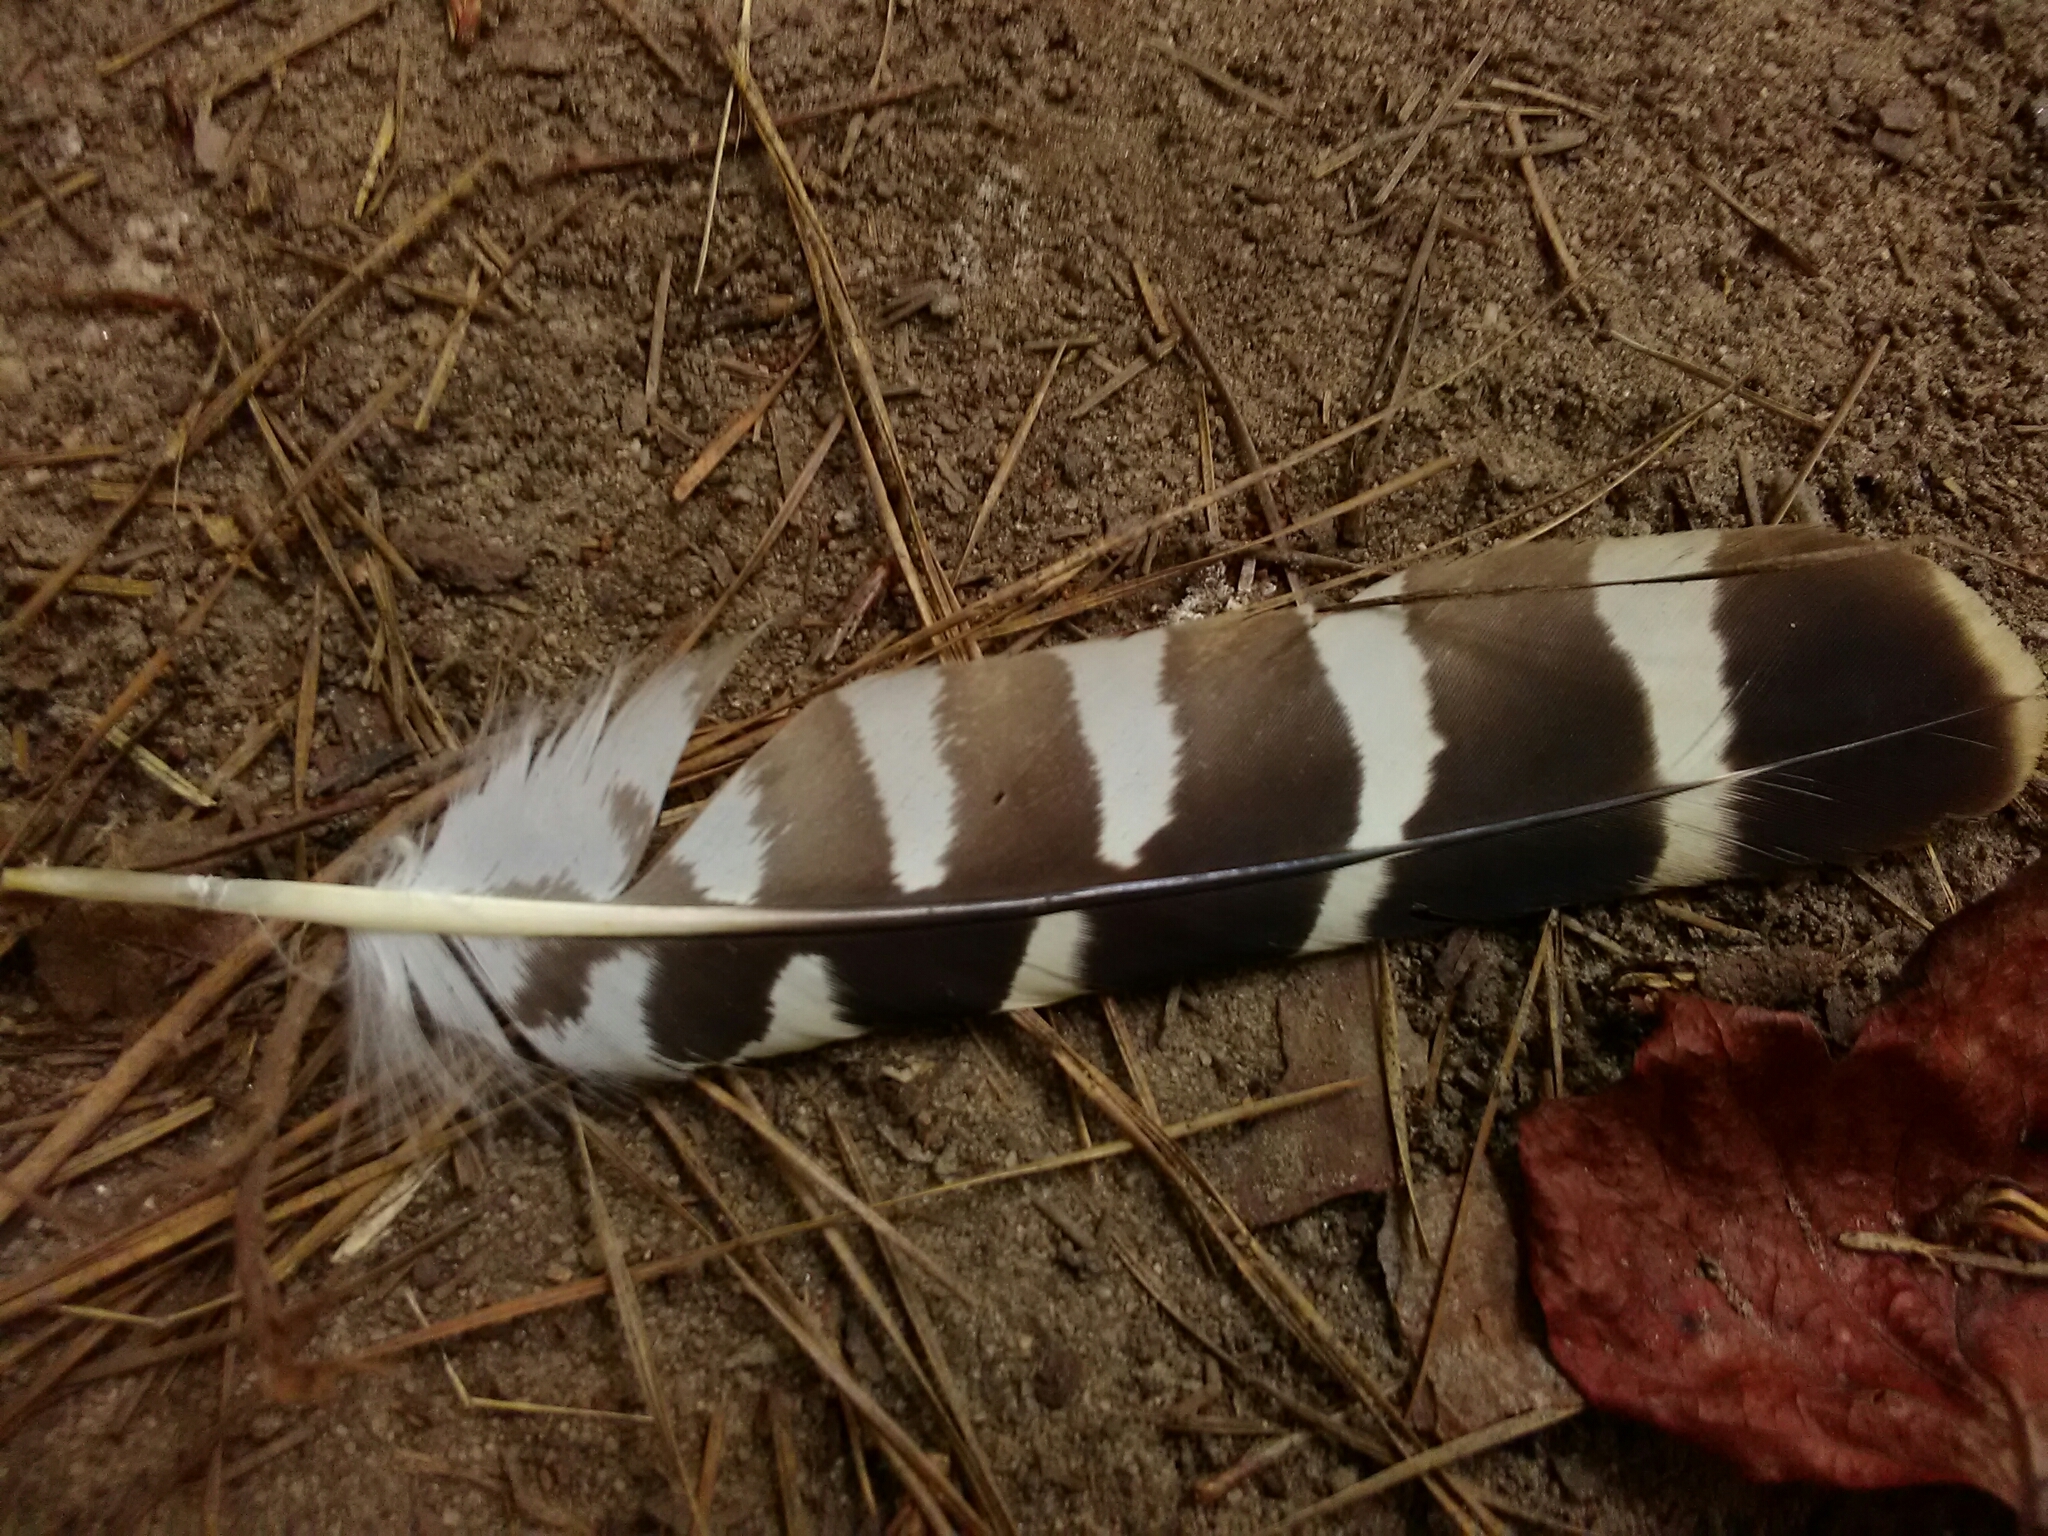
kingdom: Animalia
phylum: Chordata
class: Aves
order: Accipitriformes
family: Accipitridae
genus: Buteo
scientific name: Buteo lineatus
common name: Red-shouldered hawk
